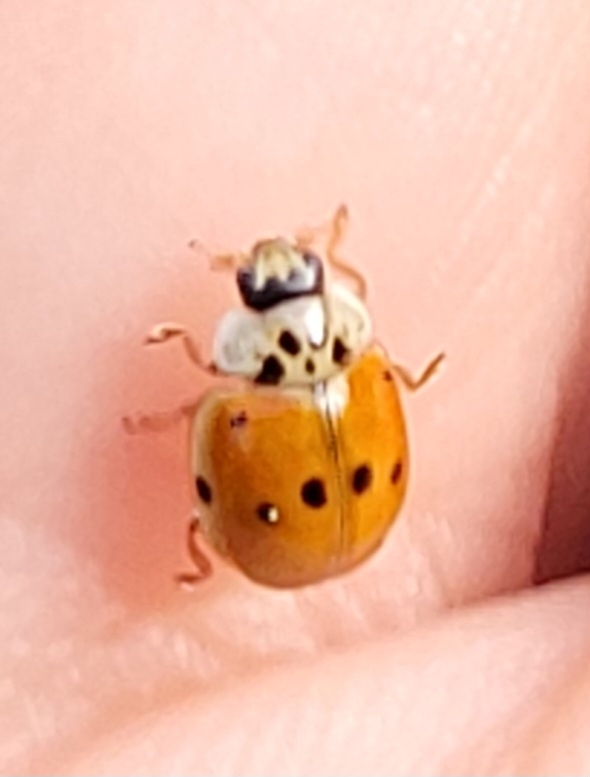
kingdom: Animalia
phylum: Arthropoda
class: Insecta
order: Coleoptera
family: Coccinellidae
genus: Adalia
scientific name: Adalia decempunctata
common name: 10-spot ladybird
